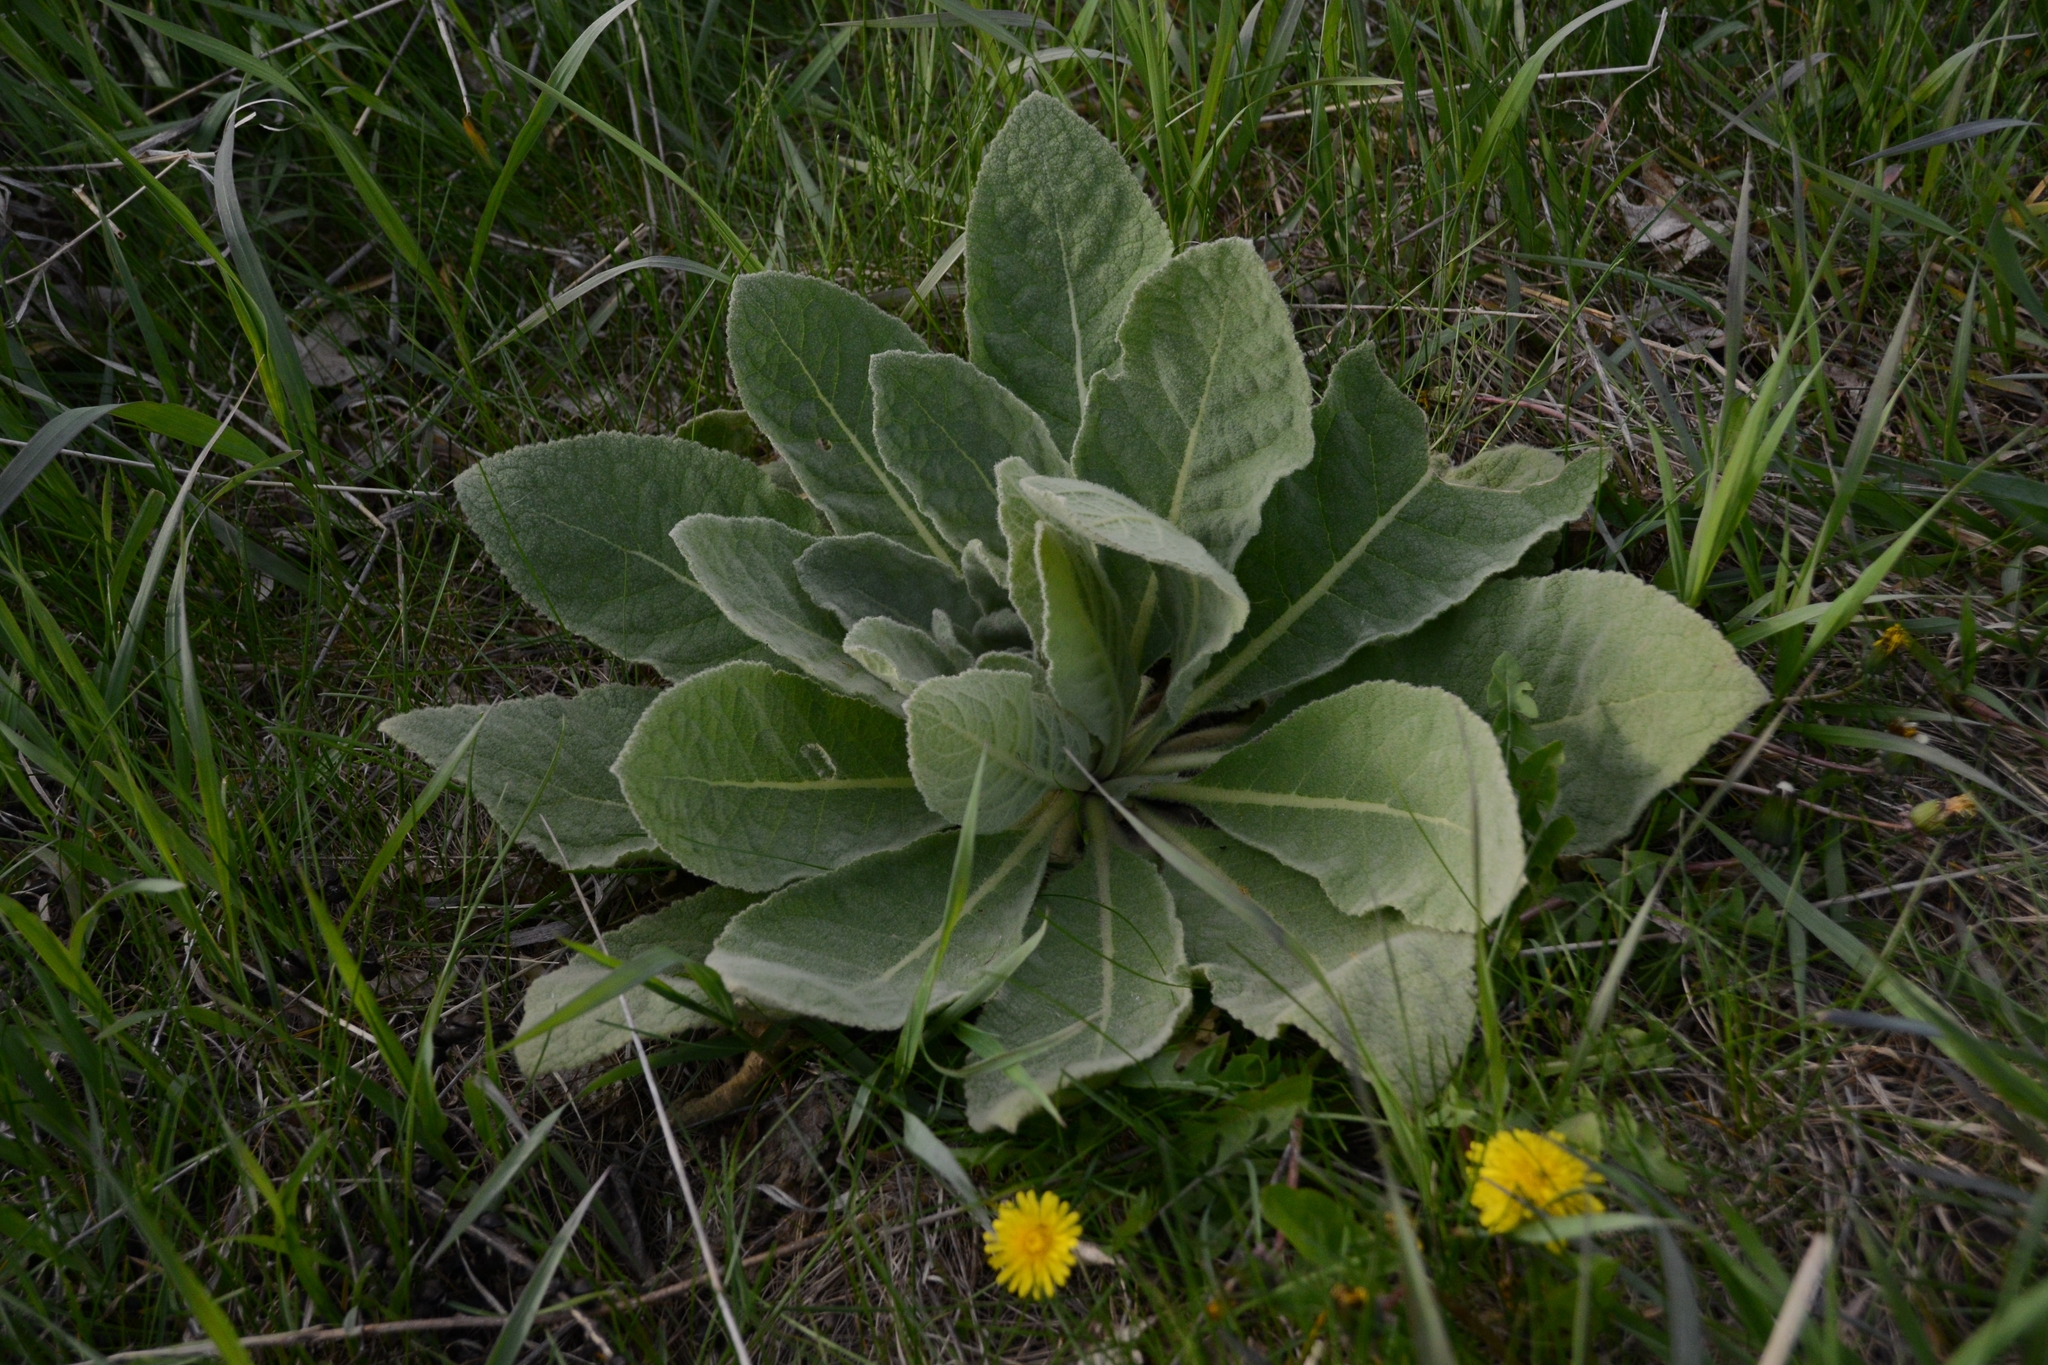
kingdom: Plantae
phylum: Tracheophyta
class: Magnoliopsida
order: Lamiales
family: Scrophulariaceae
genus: Verbascum
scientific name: Verbascum thapsus
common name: Common mullein
